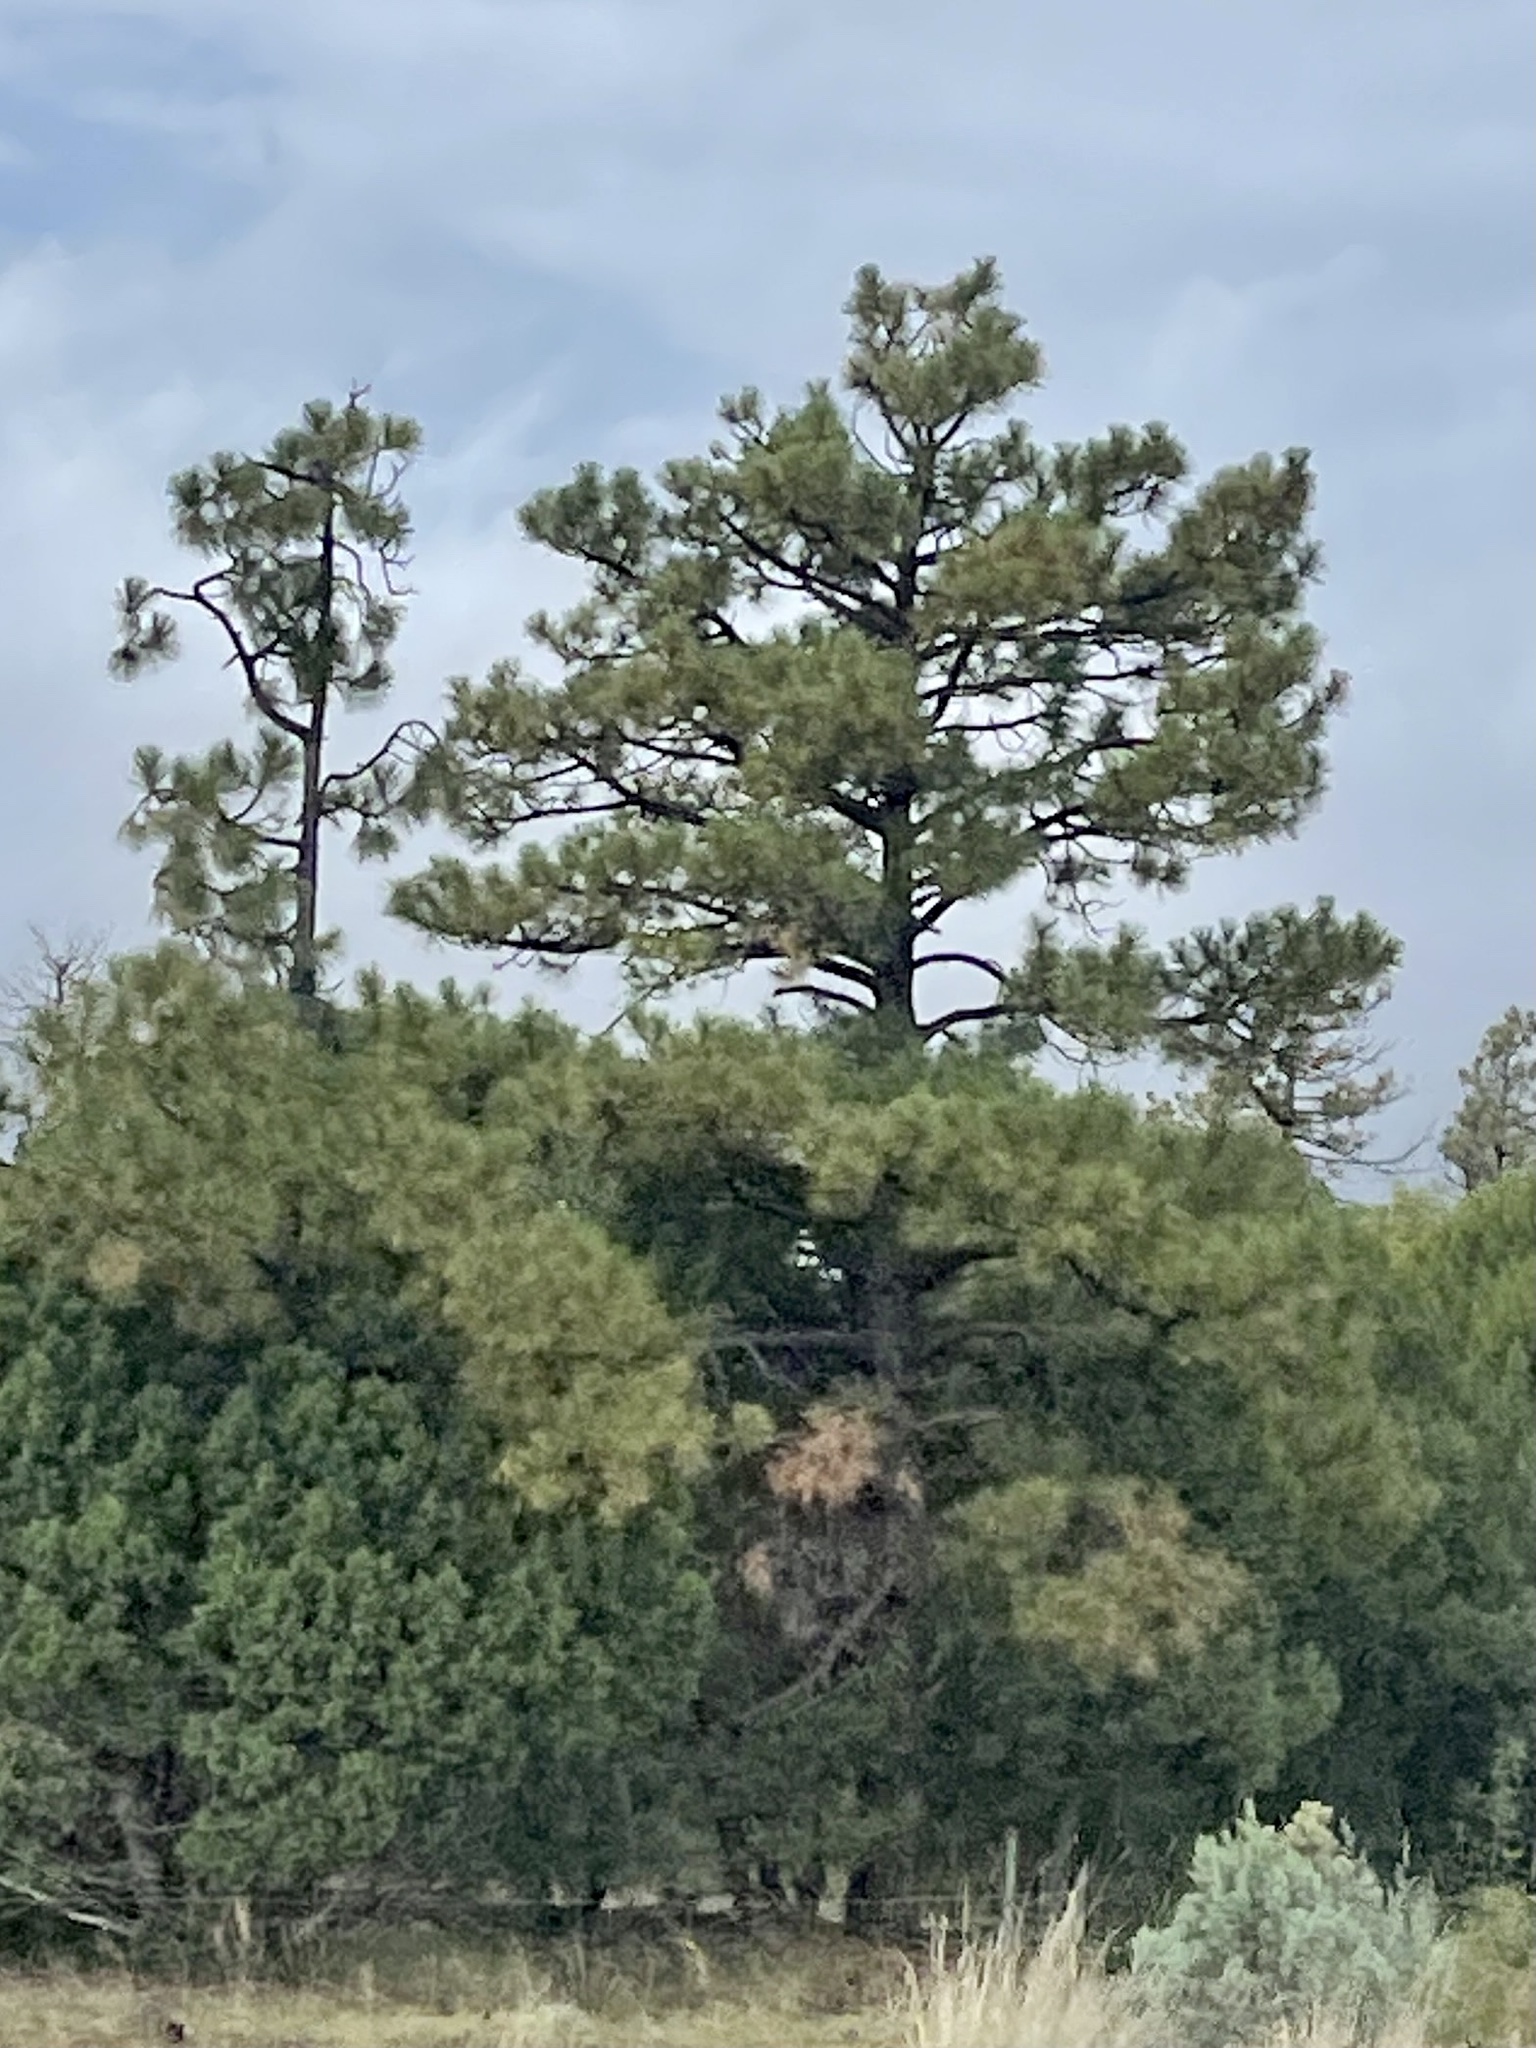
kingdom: Plantae
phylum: Tracheophyta
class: Pinopsida
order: Pinales
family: Pinaceae
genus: Pinus
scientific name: Pinus ponderosa
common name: Western yellow-pine
